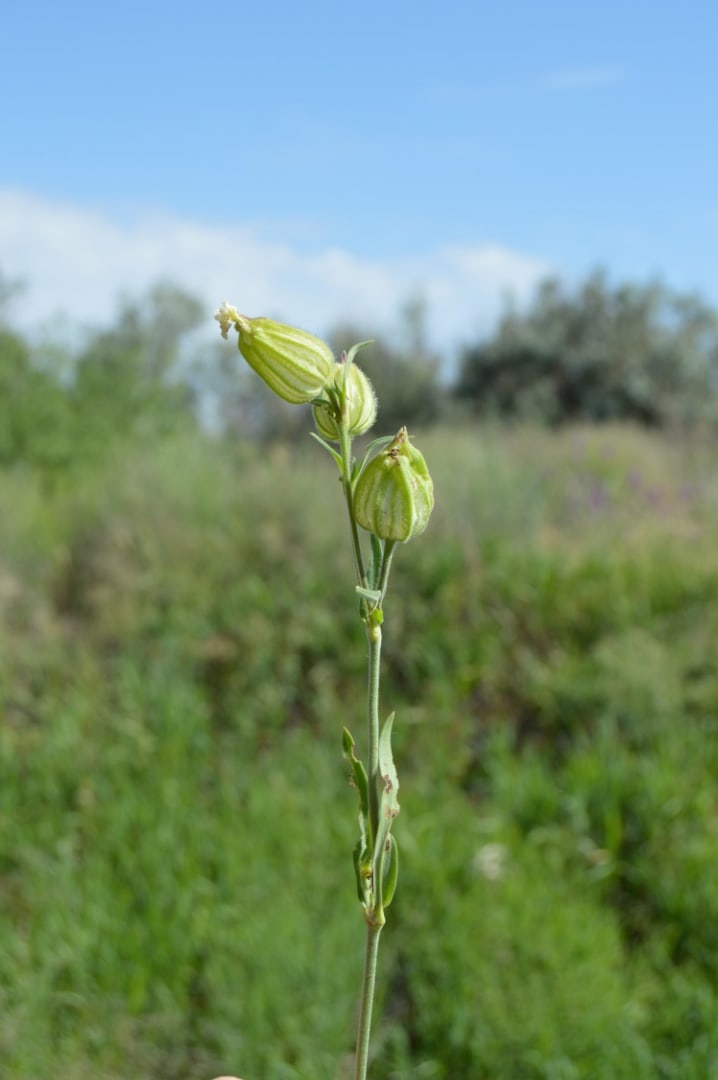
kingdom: Plantae
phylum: Tracheophyta
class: Magnoliopsida
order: Caryophyllales
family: Caryophyllaceae
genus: Silene
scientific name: Silene latifolia
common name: White campion
